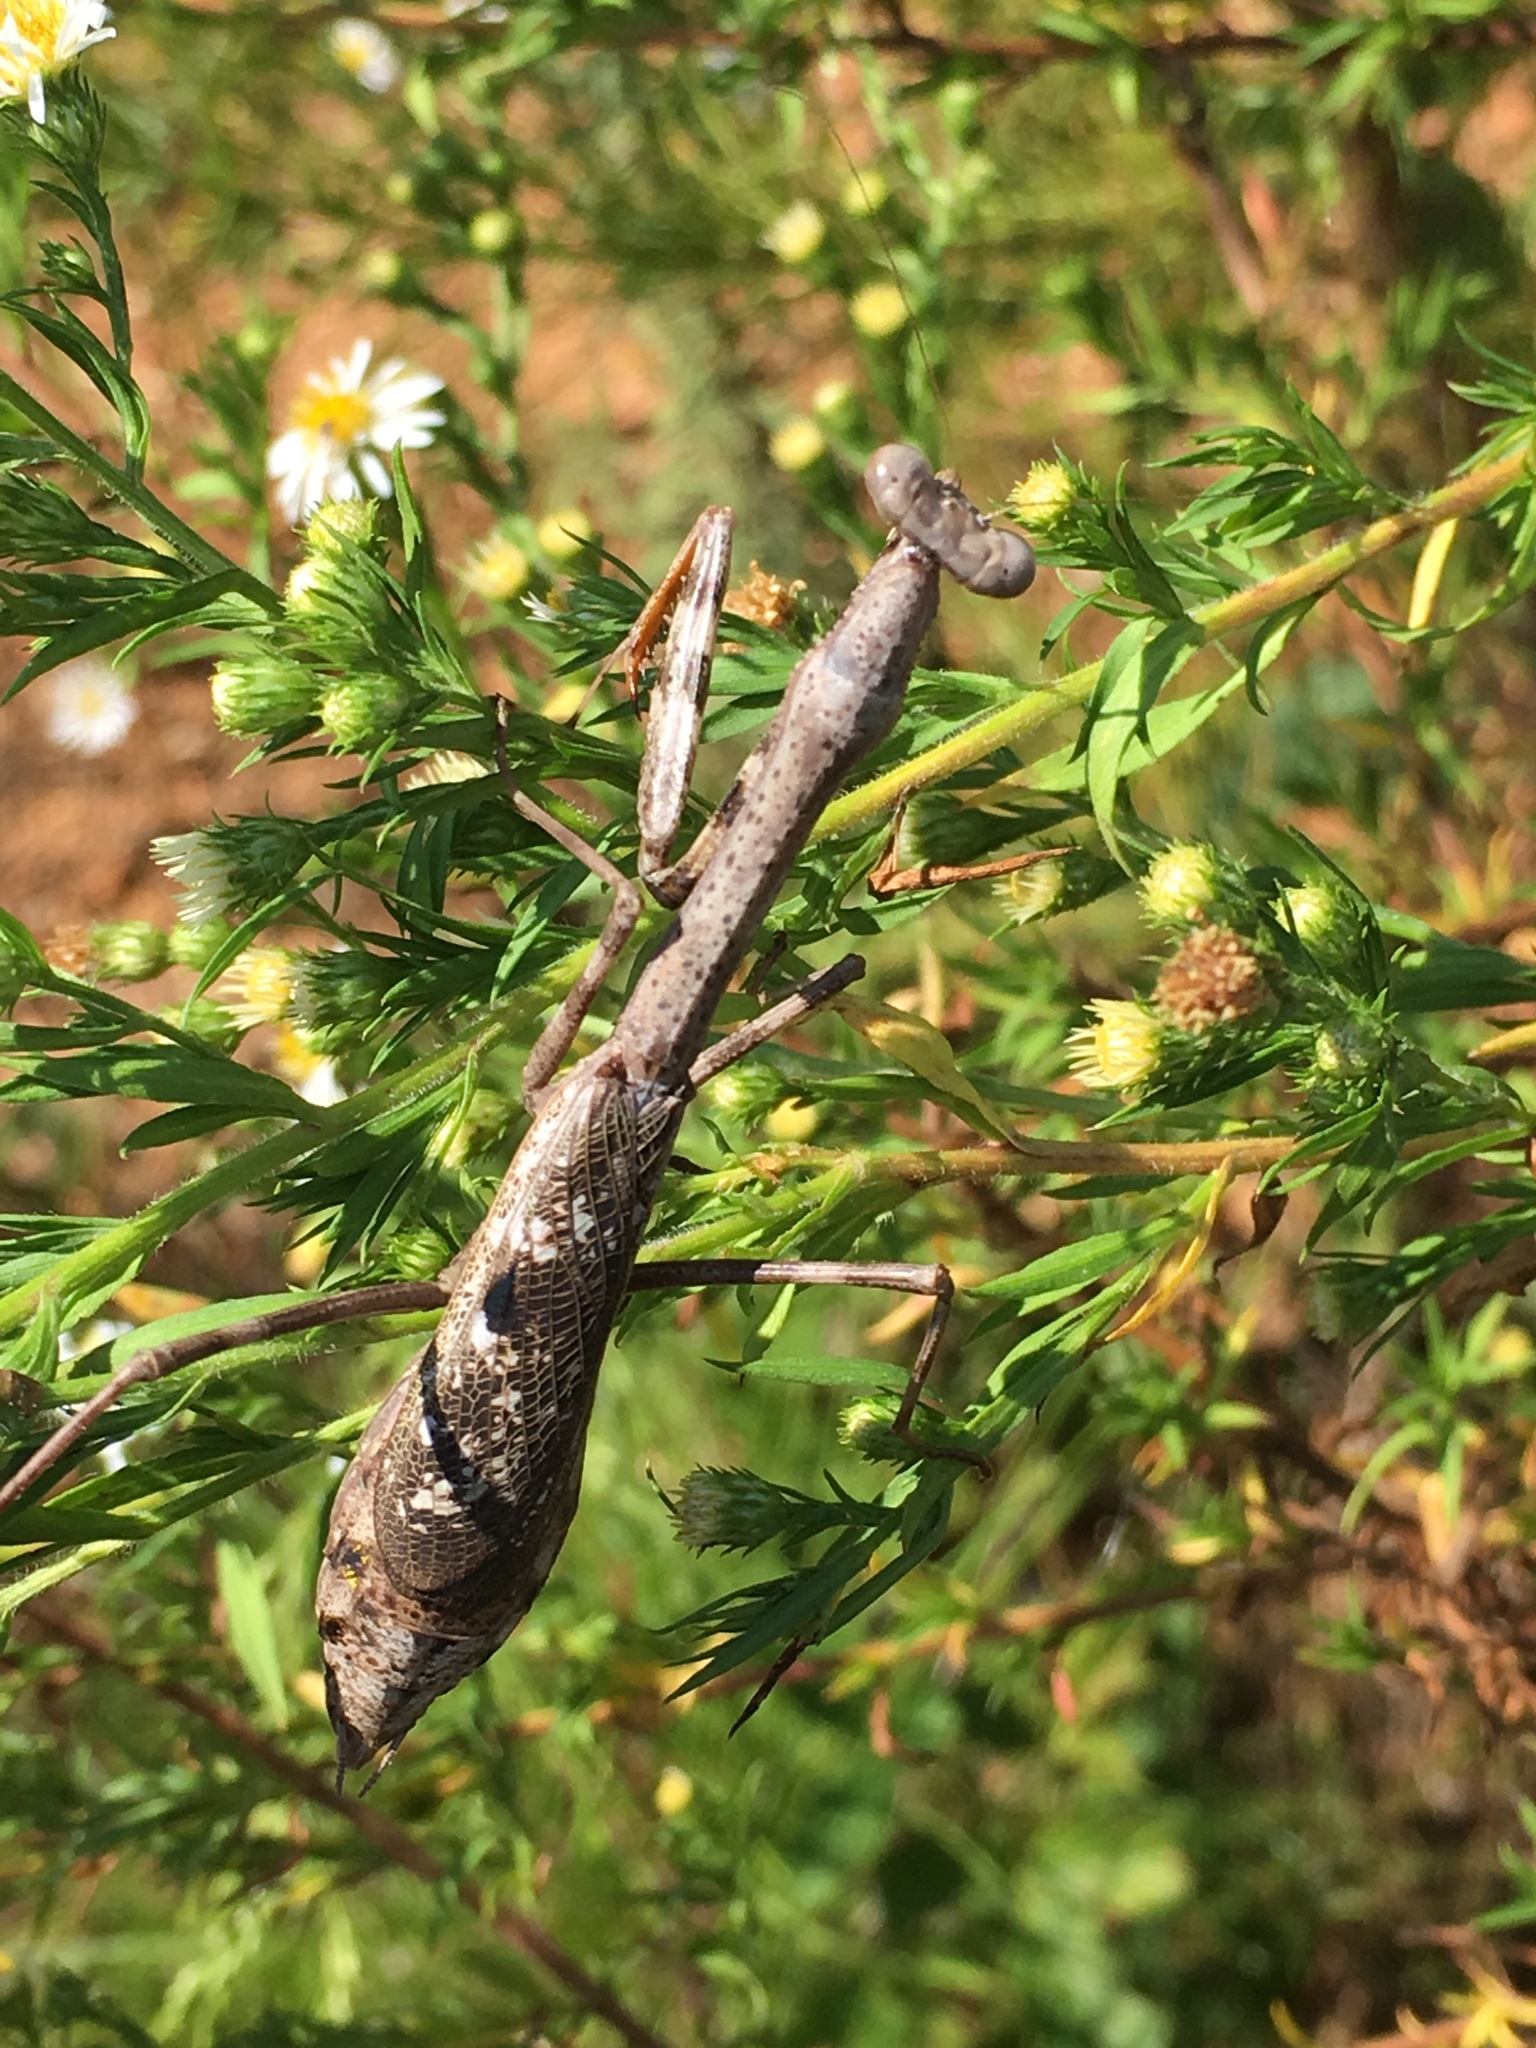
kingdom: Animalia
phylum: Arthropoda
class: Insecta
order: Mantodea
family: Mantidae
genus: Stagmomantis
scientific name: Stagmomantis carolina
